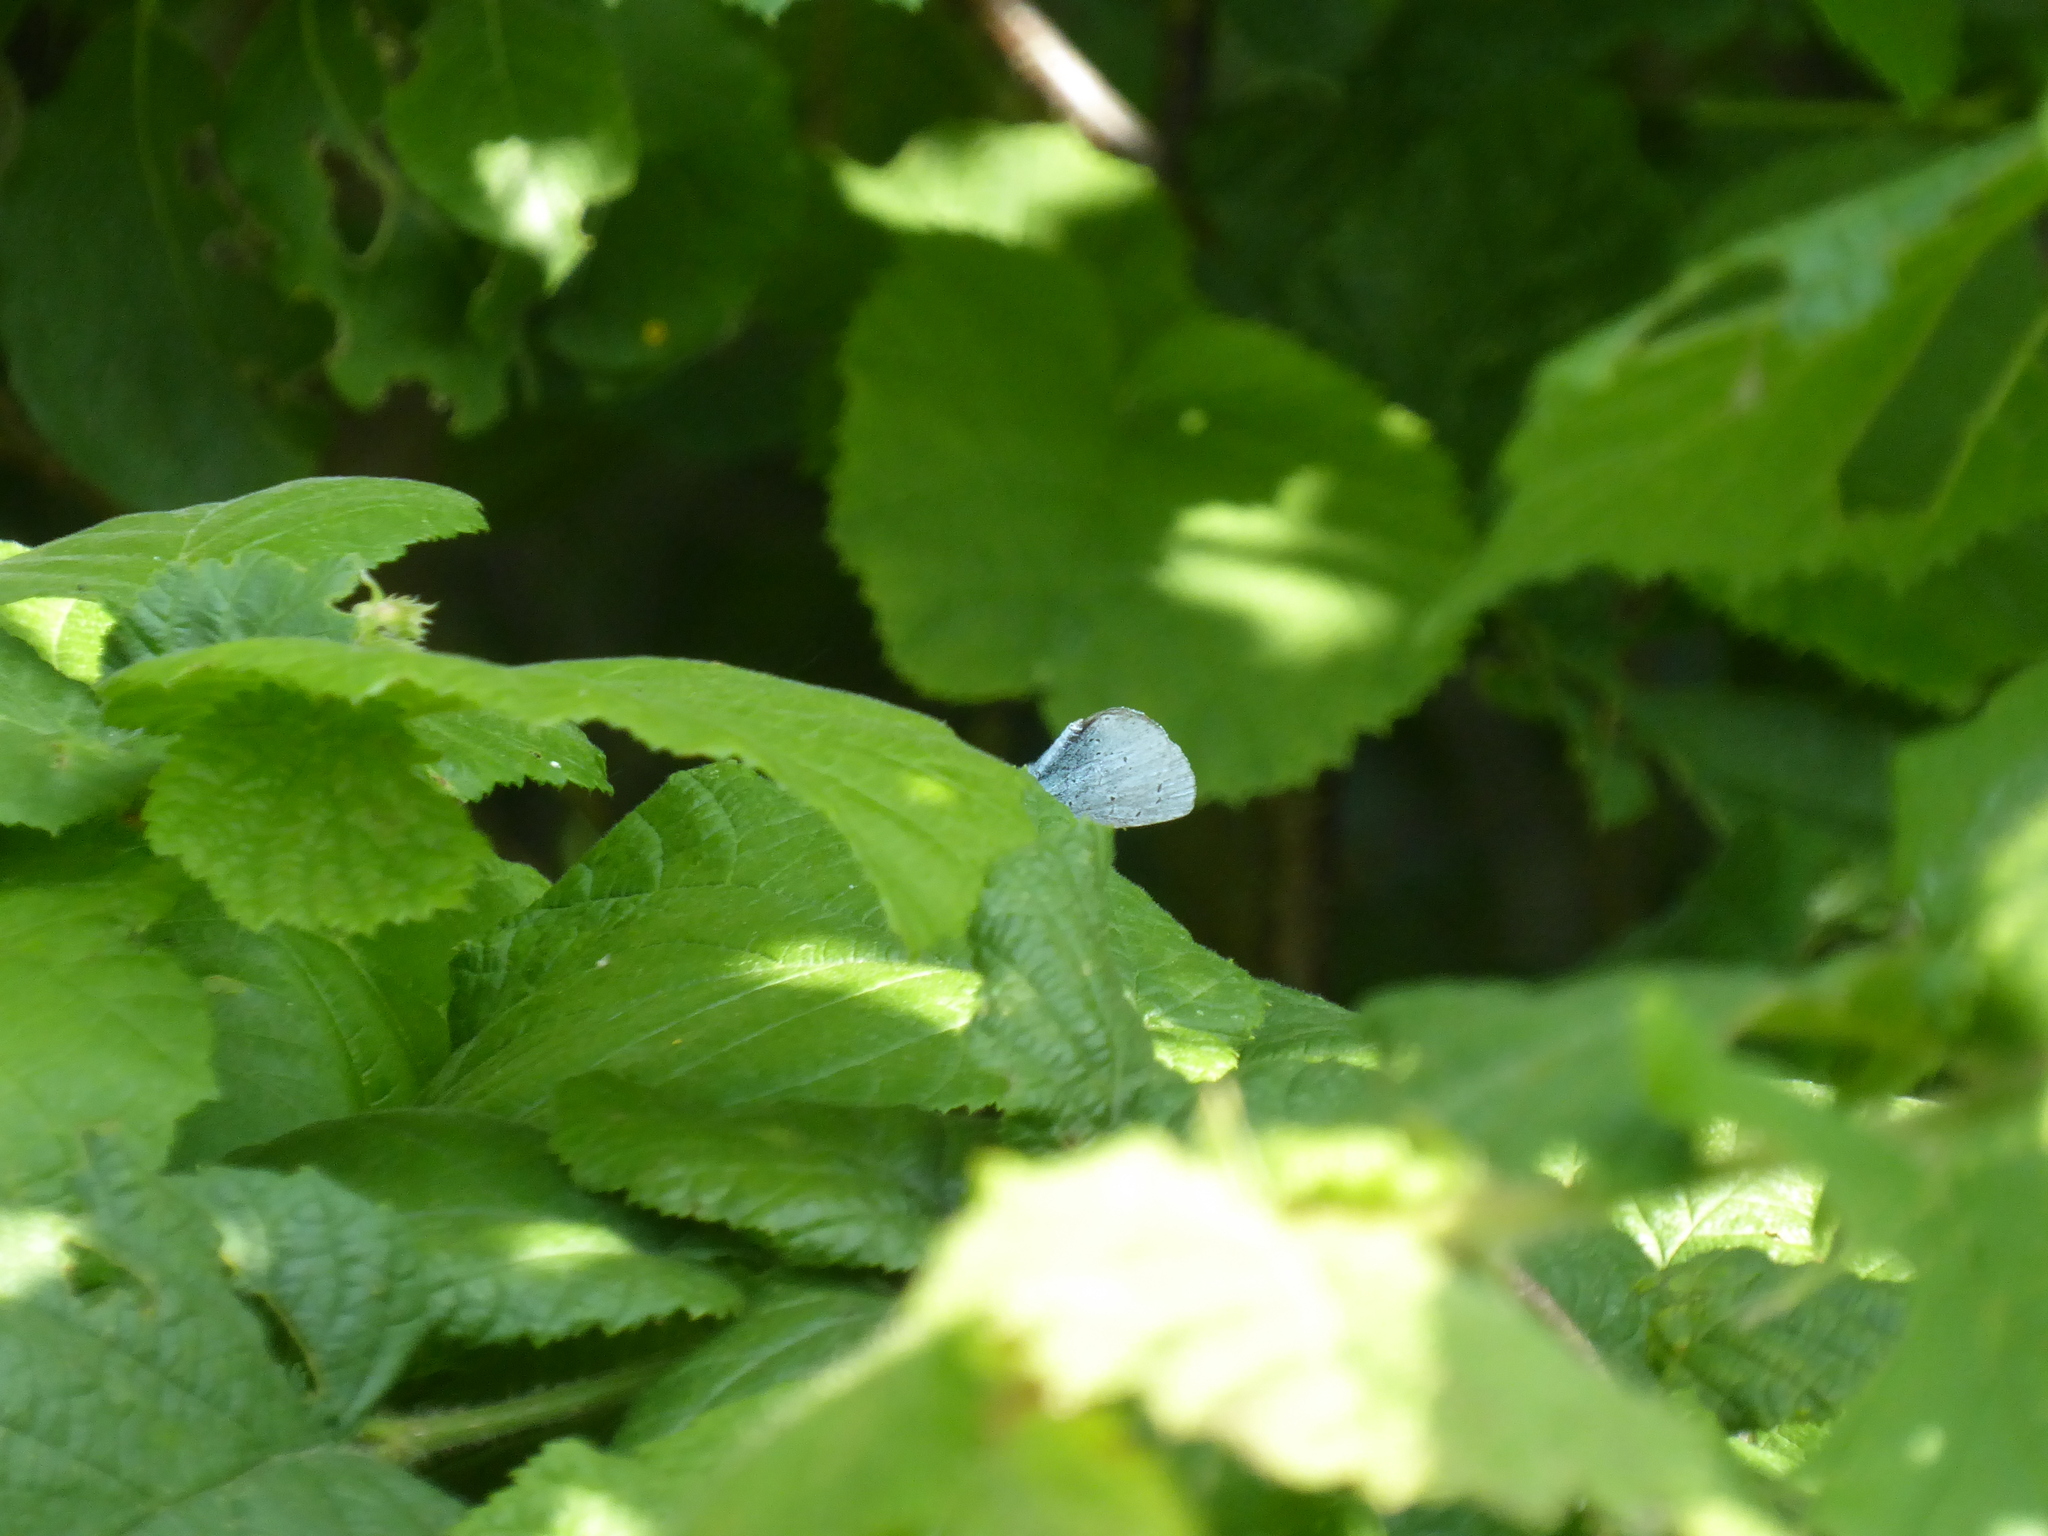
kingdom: Animalia
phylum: Arthropoda
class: Insecta
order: Lepidoptera
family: Lycaenidae
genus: Celastrina
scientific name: Celastrina argiolus
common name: Holly blue
